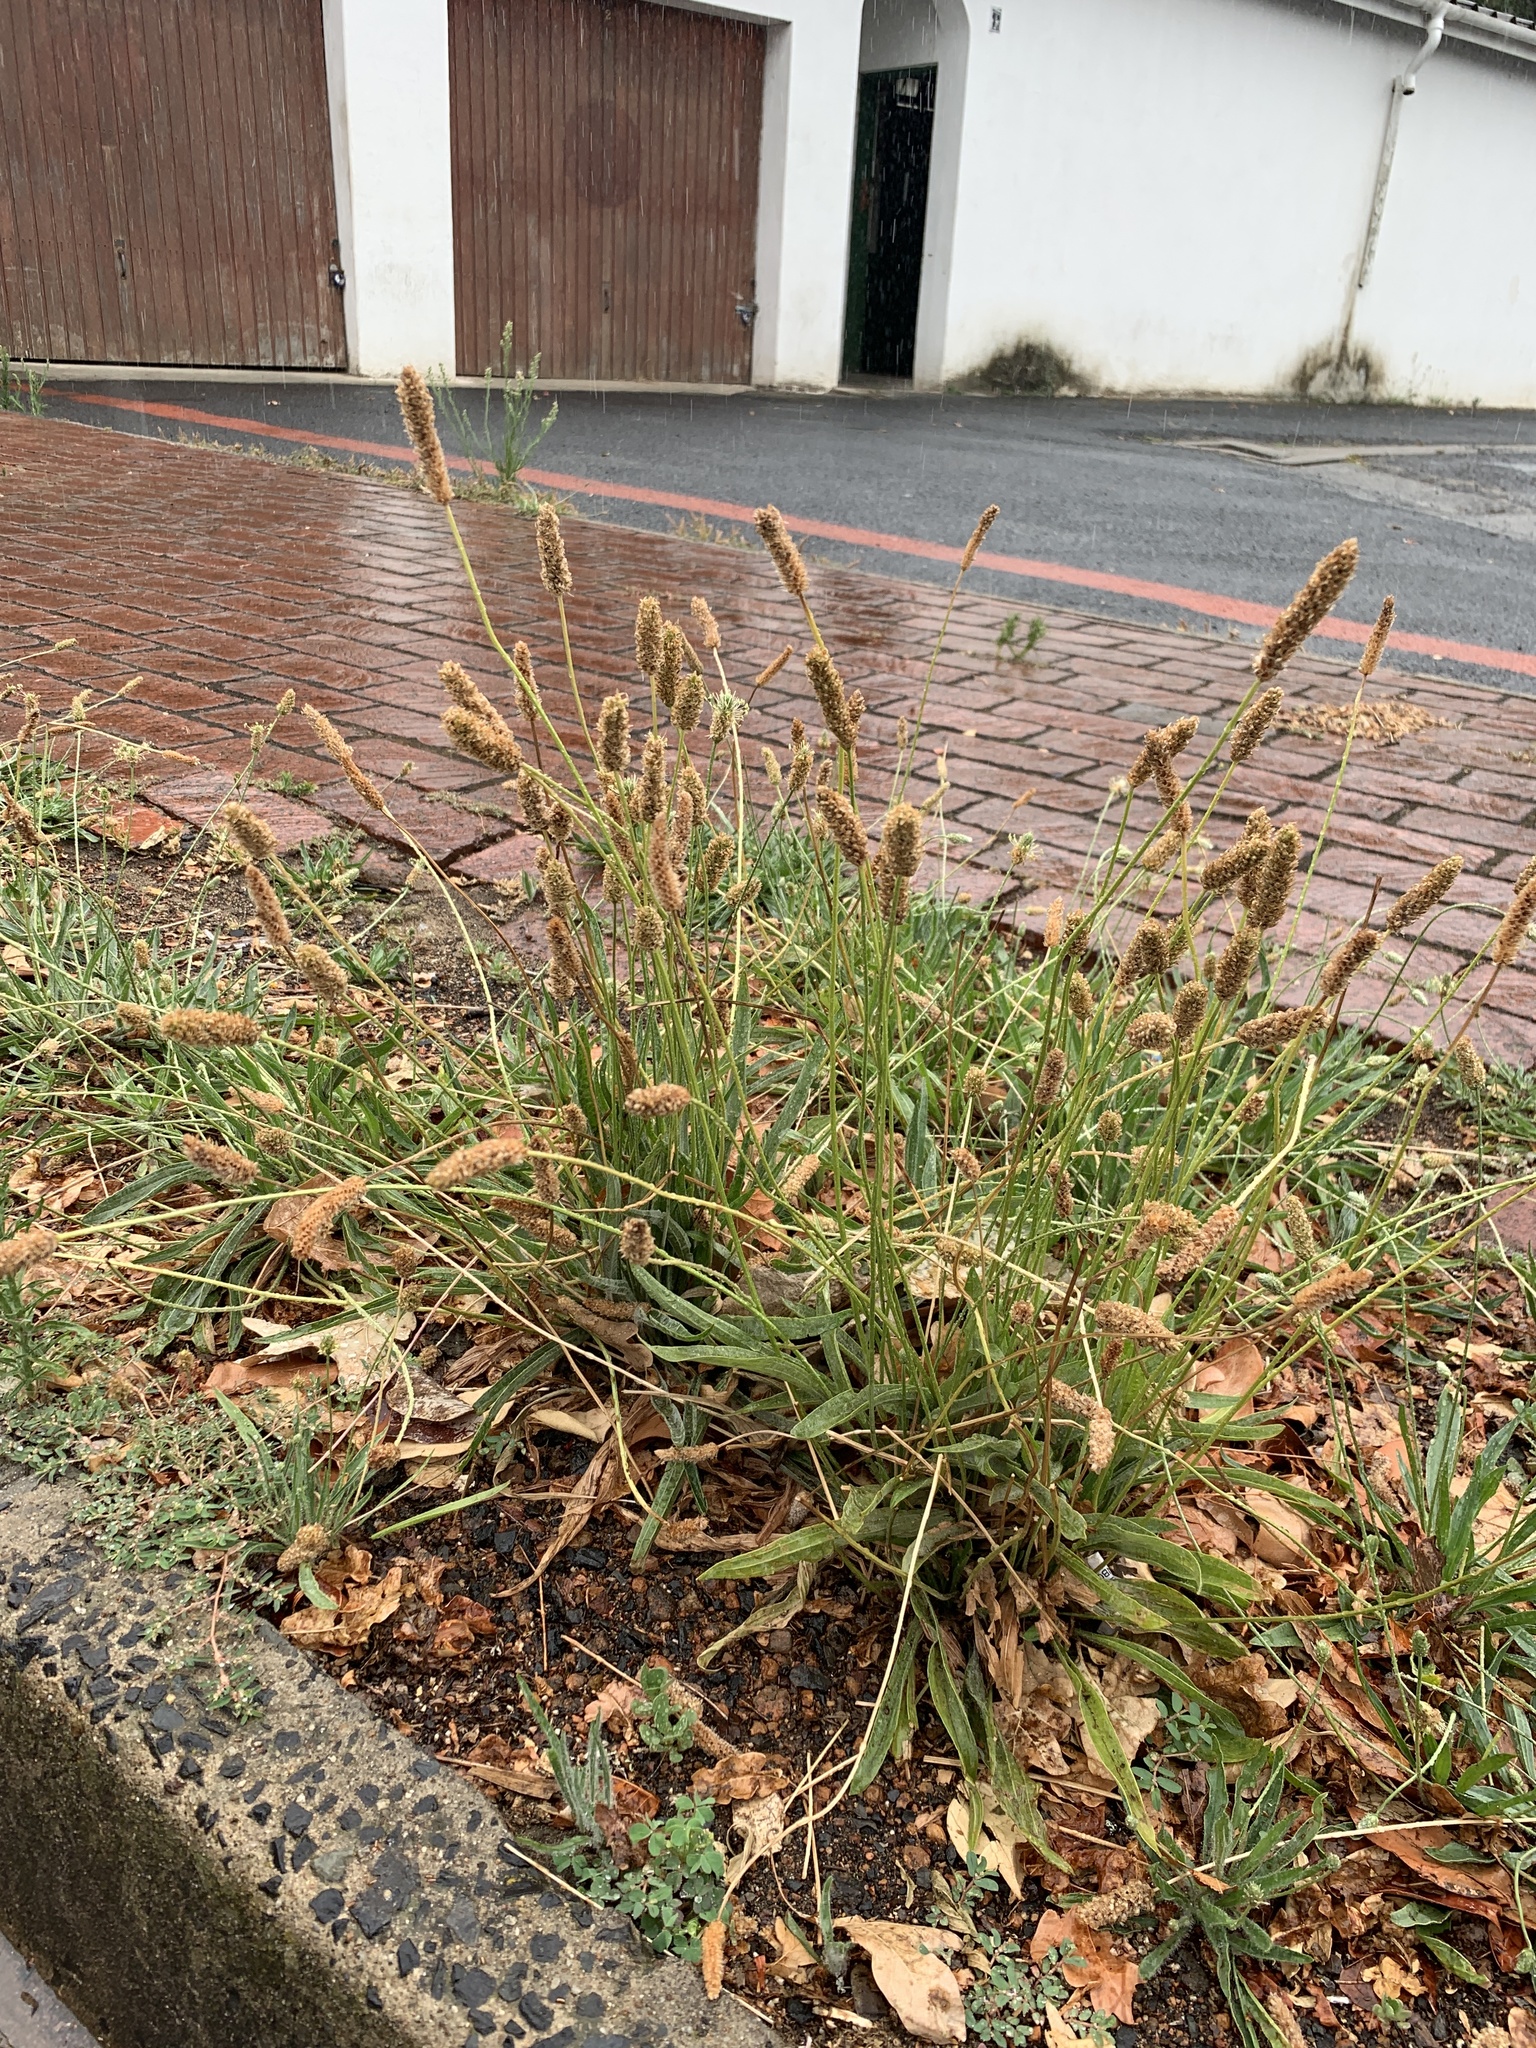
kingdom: Plantae
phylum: Tracheophyta
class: Magnoliopsida
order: Lamiales
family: Plantaginaceae
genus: Plantago
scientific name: Plantago lanceolata
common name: Ribwort plantain
